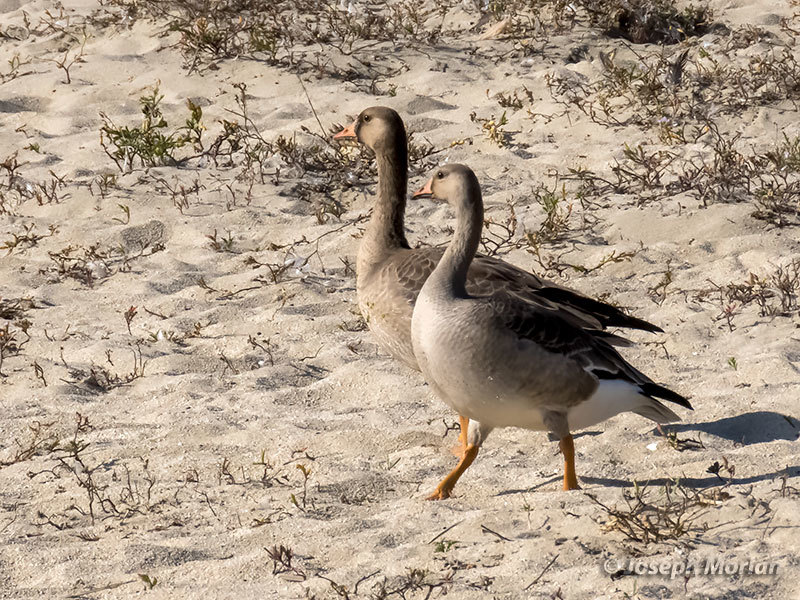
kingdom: Animalia
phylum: Chordata
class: Aves
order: Anseriformes
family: Anatidae
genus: Anser
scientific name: Anser albifrons
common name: Greater white-fronted goose
